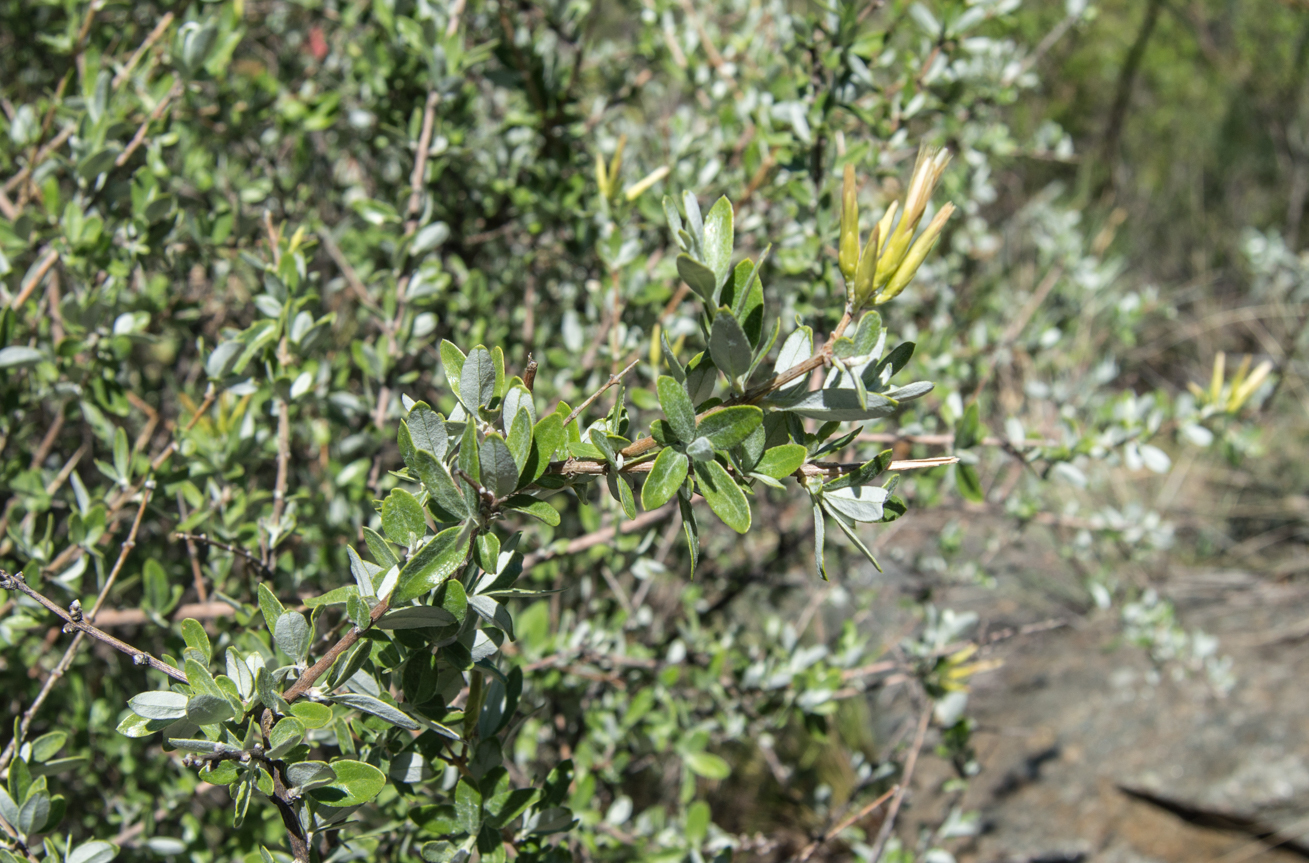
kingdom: Plantae
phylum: Tracheophyta
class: Magnoliopsida
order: Asterales
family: Asteraceae
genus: Hyaloseris
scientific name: Hyaloseris cinerea
